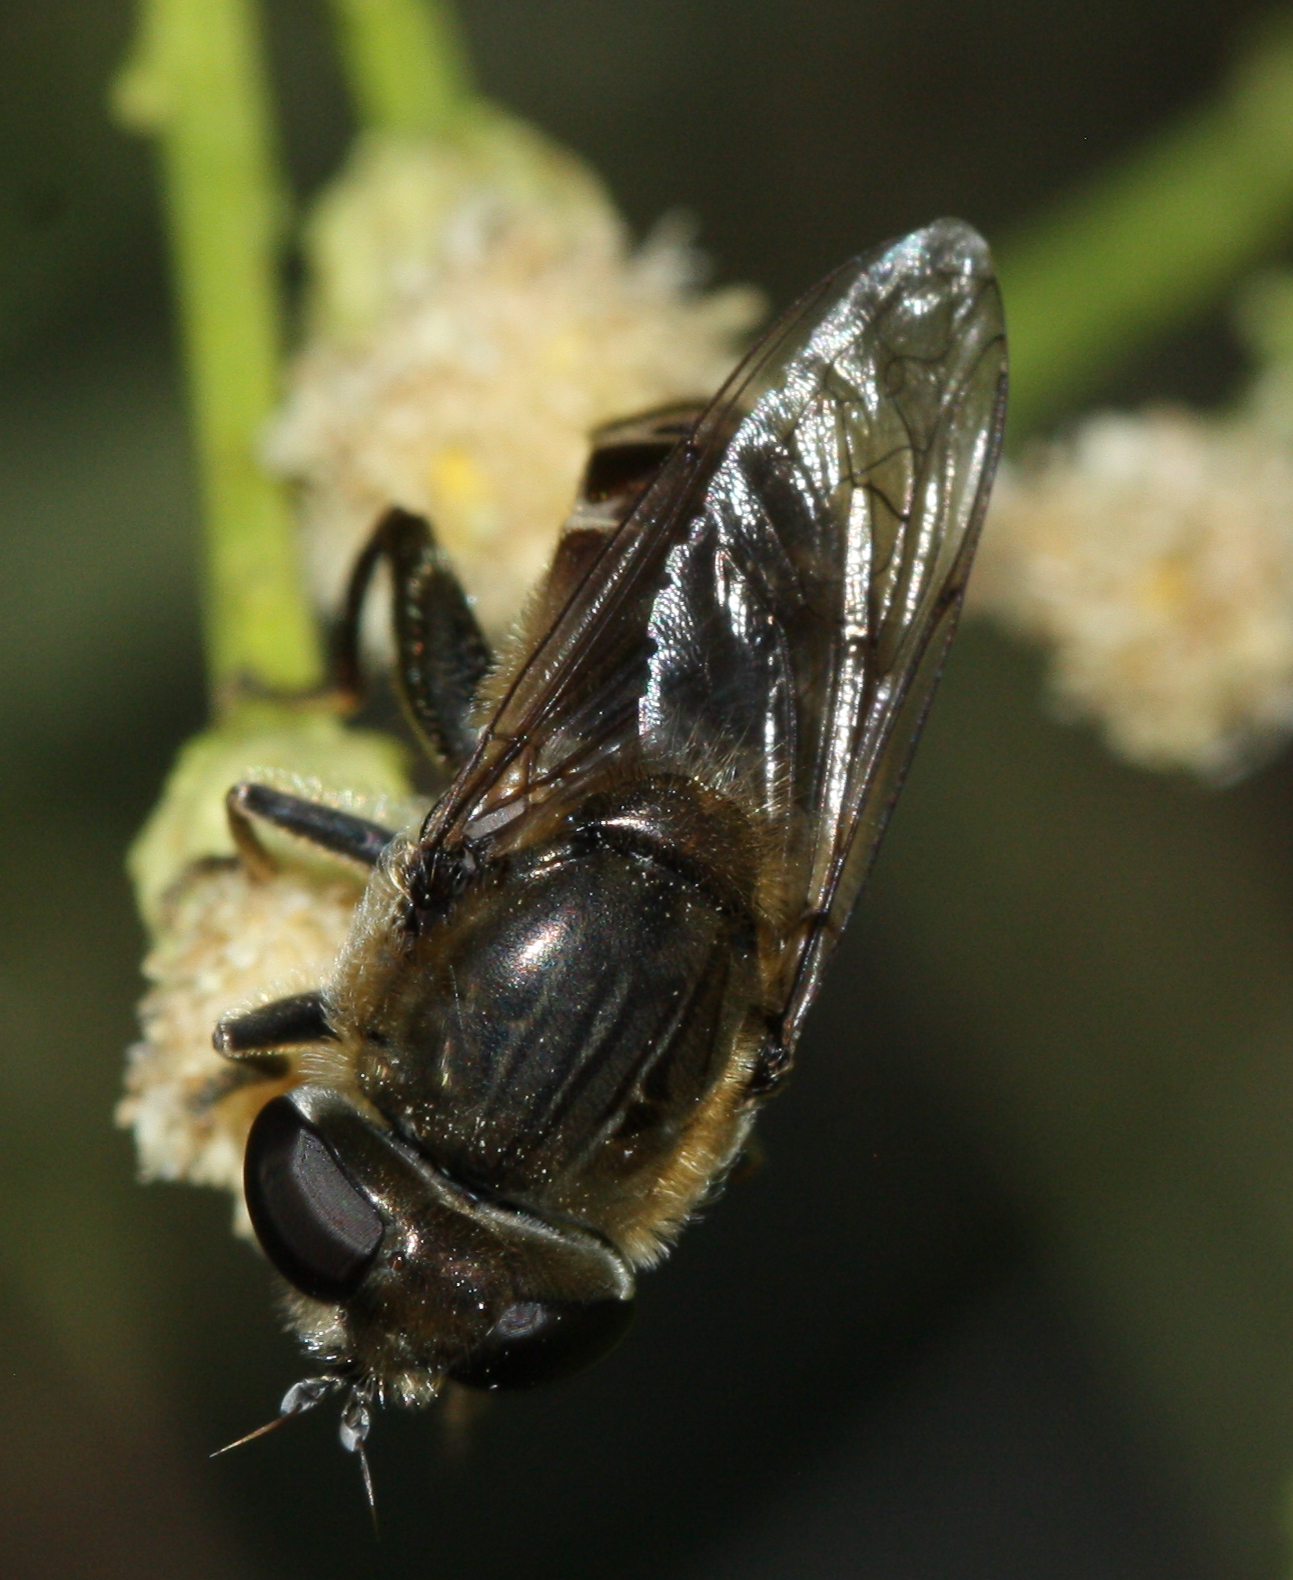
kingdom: Animalia
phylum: Arthropoda
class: Insecta
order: Diptera
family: Syrphidae
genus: Asemosyrphus
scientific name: Asemosyrphus polygrammus
